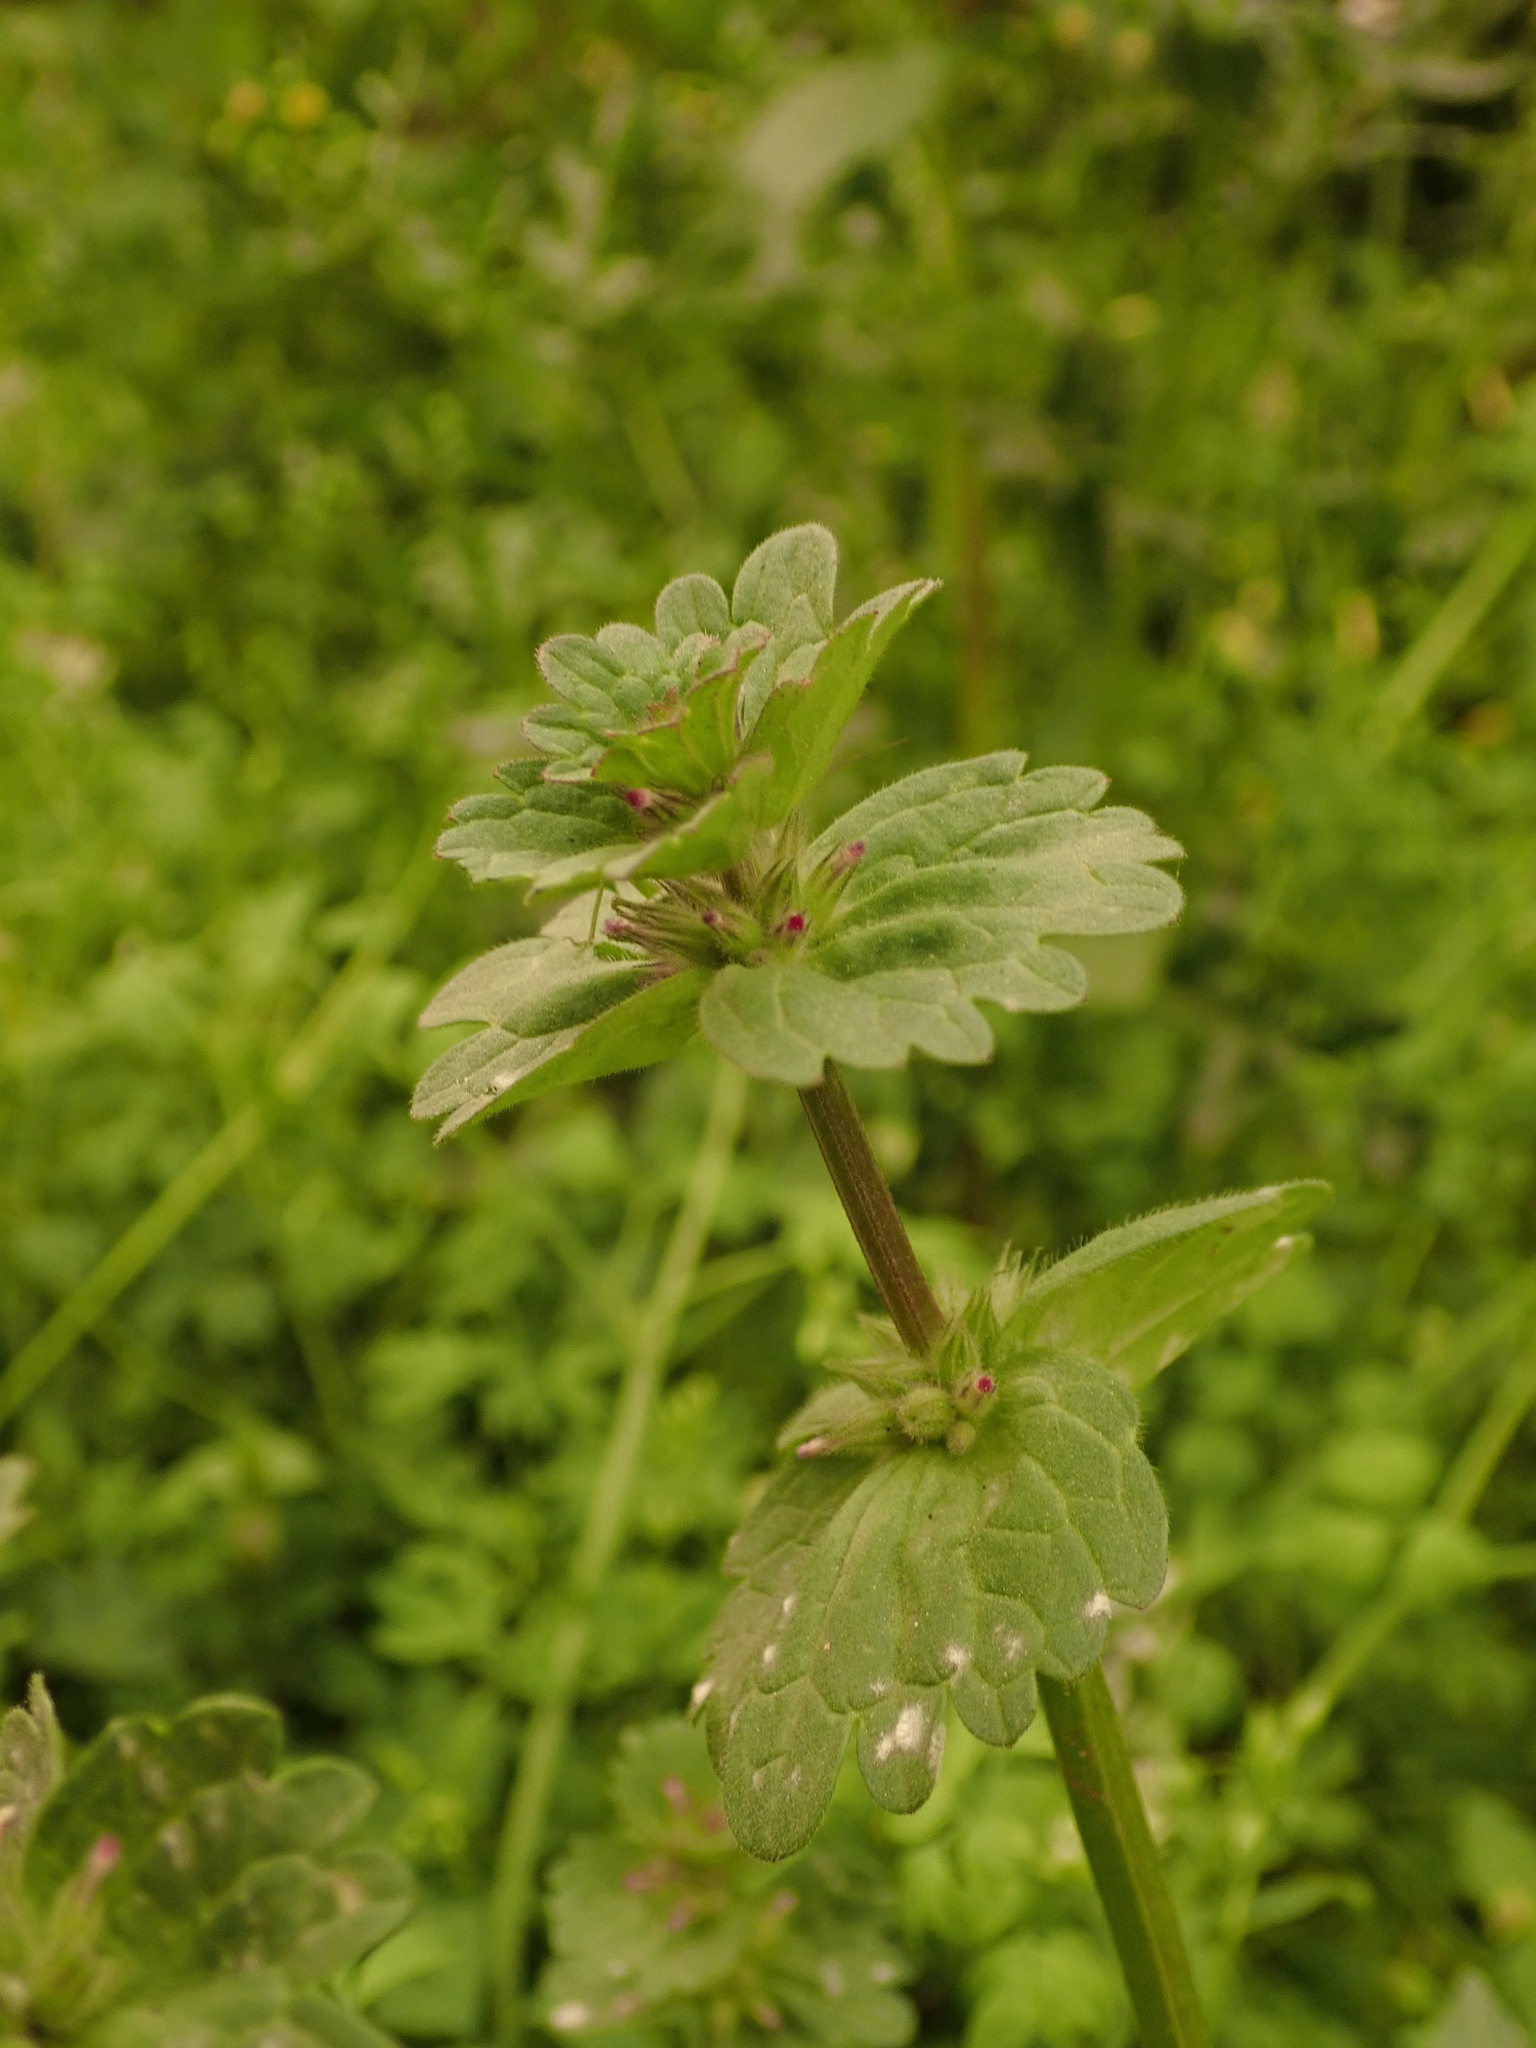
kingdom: Plantae
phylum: Tracheophyta
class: Magnoliopsida
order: Lamiales
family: Lamiaceae
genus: Lamium
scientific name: Lamium amplexicaule
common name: Henbit dead-nettle
